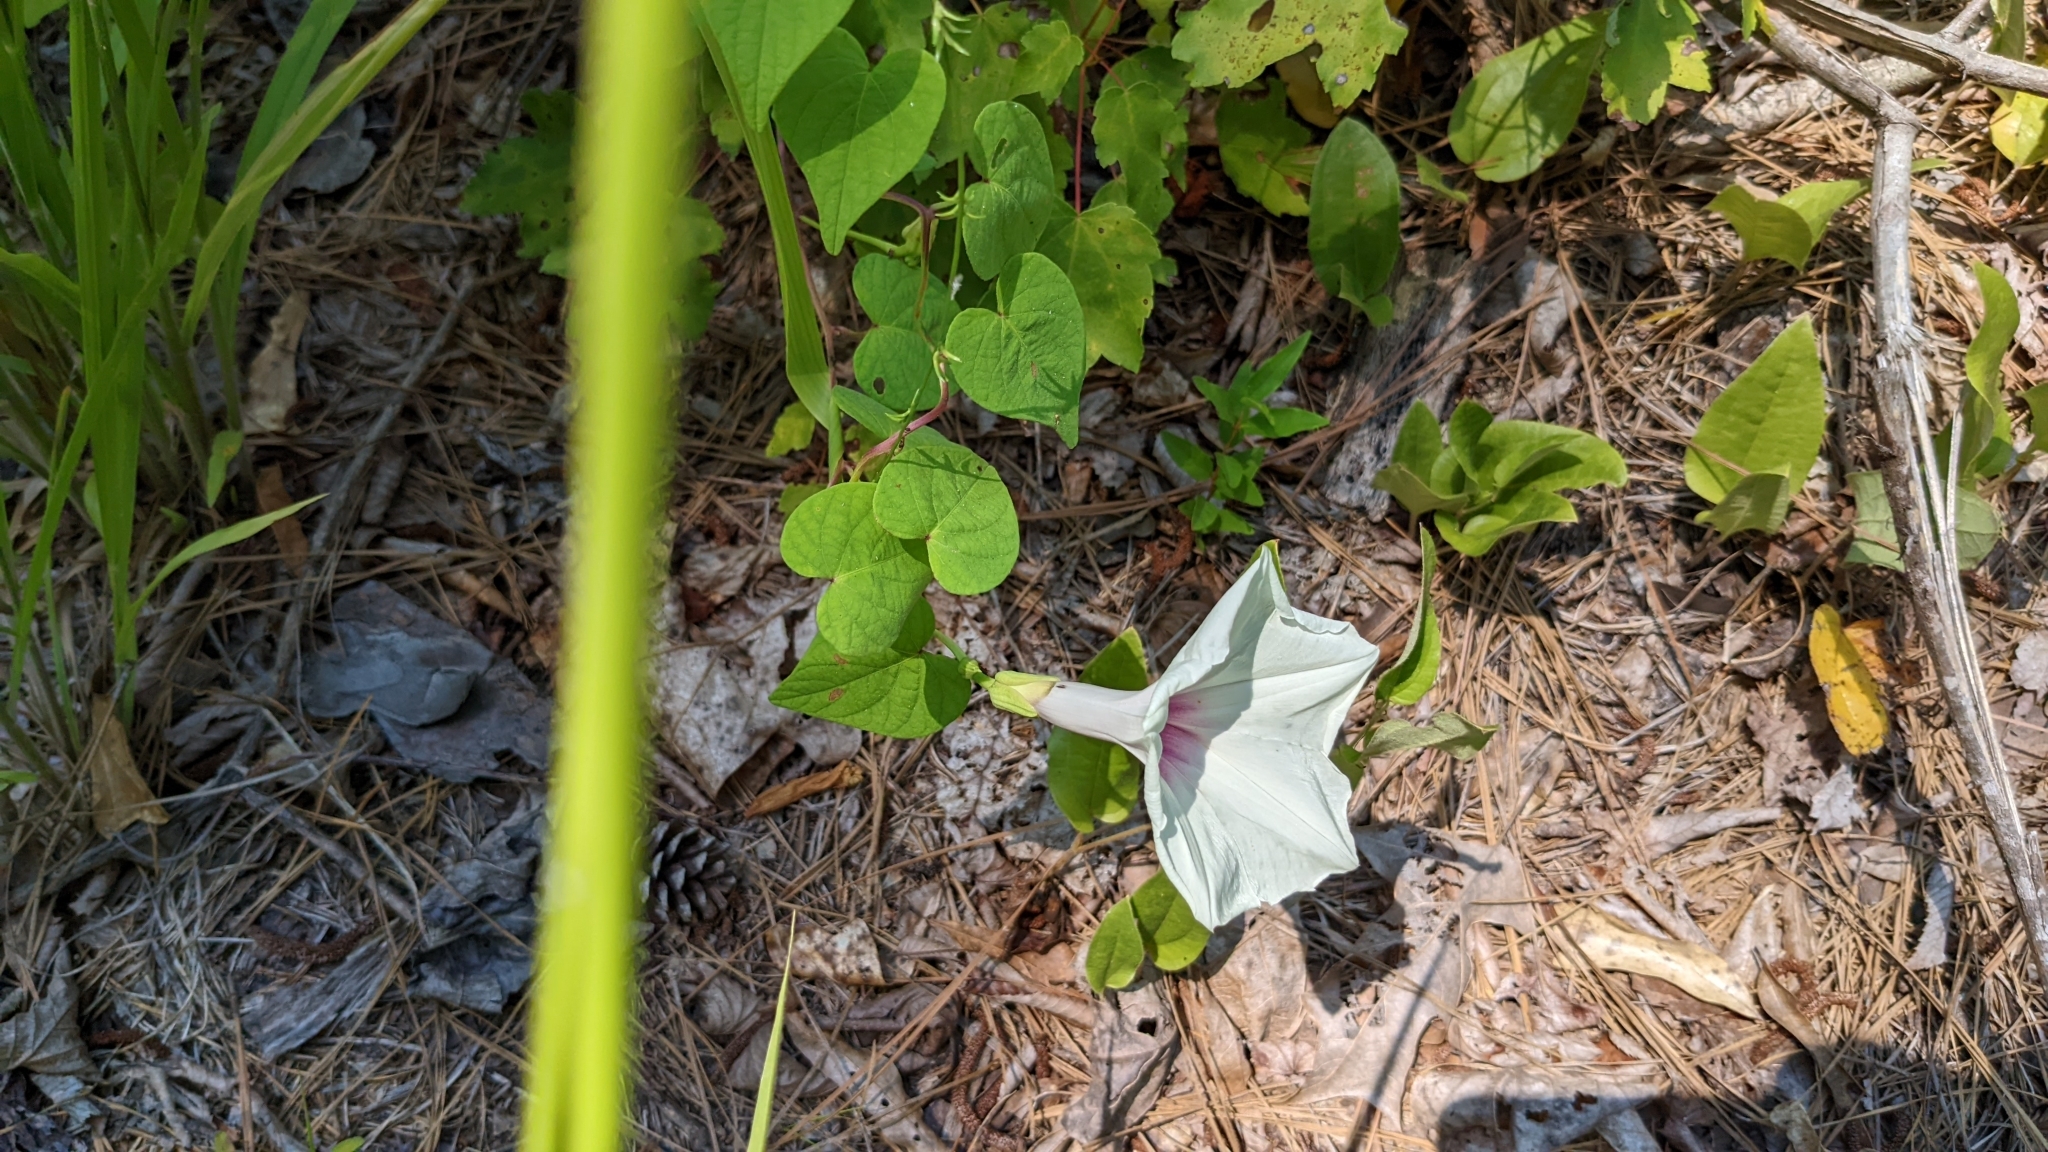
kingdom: Plantae
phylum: Tracheophyta
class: Magnoliopsida
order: Solanales
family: Convolvulaceae
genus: Ipomoea
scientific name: Ipomoea pandurata
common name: Man-of-the-earth
